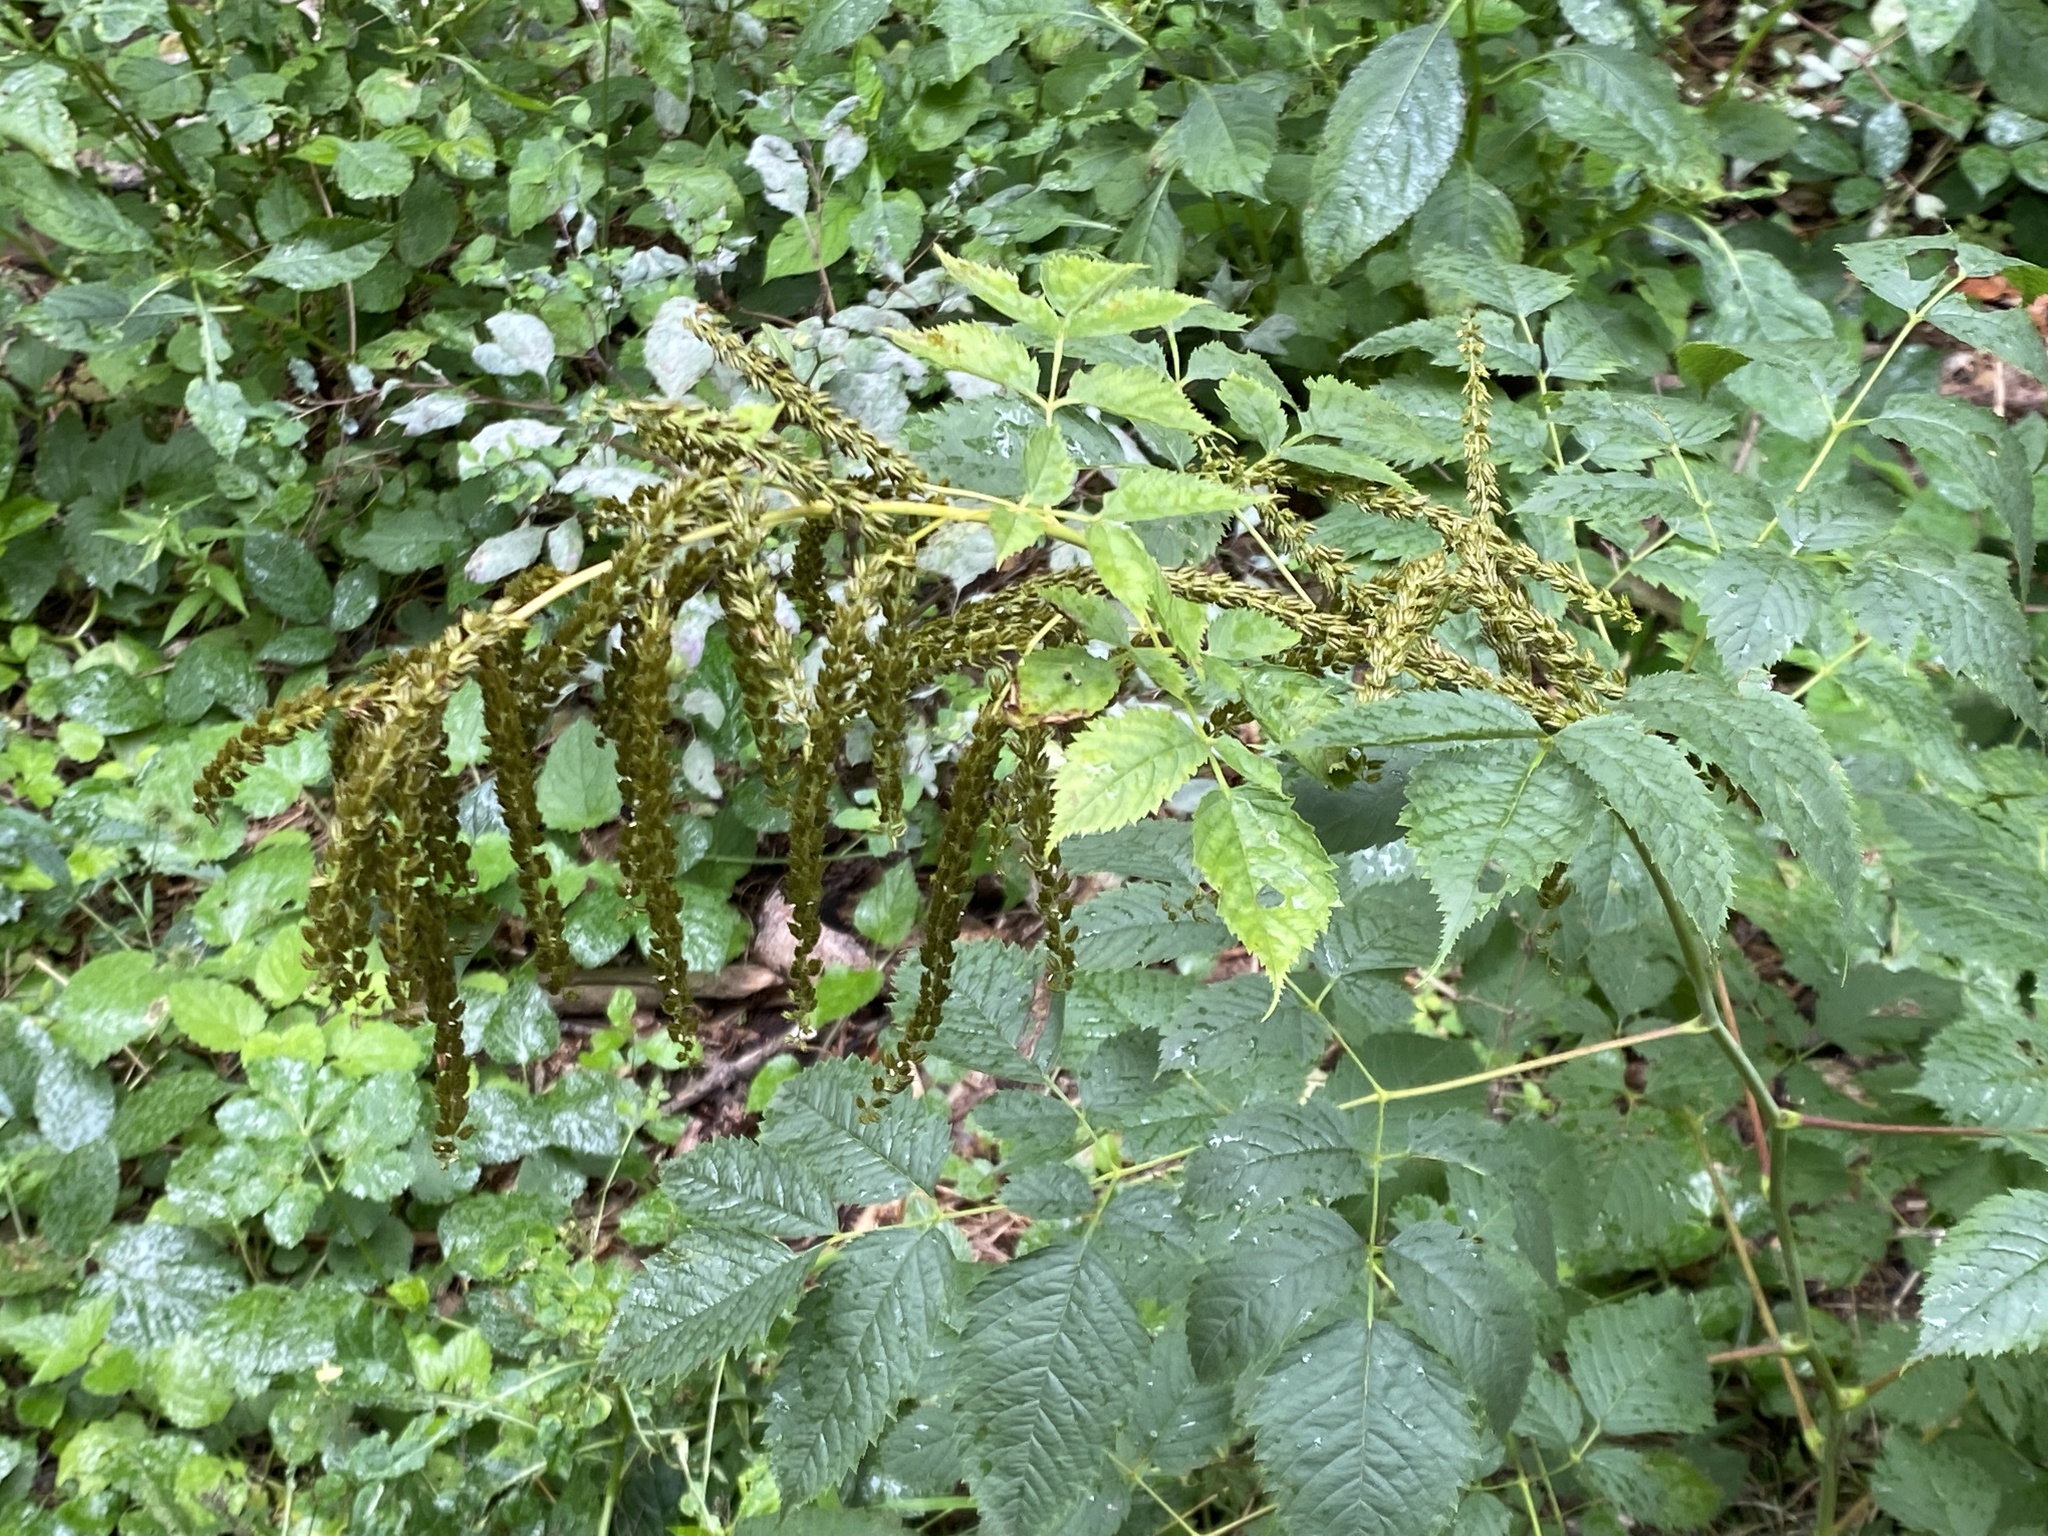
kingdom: Plantae
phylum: Tracheophyta
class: Magnoliopsida
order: Rosales
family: Rosaceae
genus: Aruncus
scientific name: Aruncus dioicus
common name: Buck's-beard
